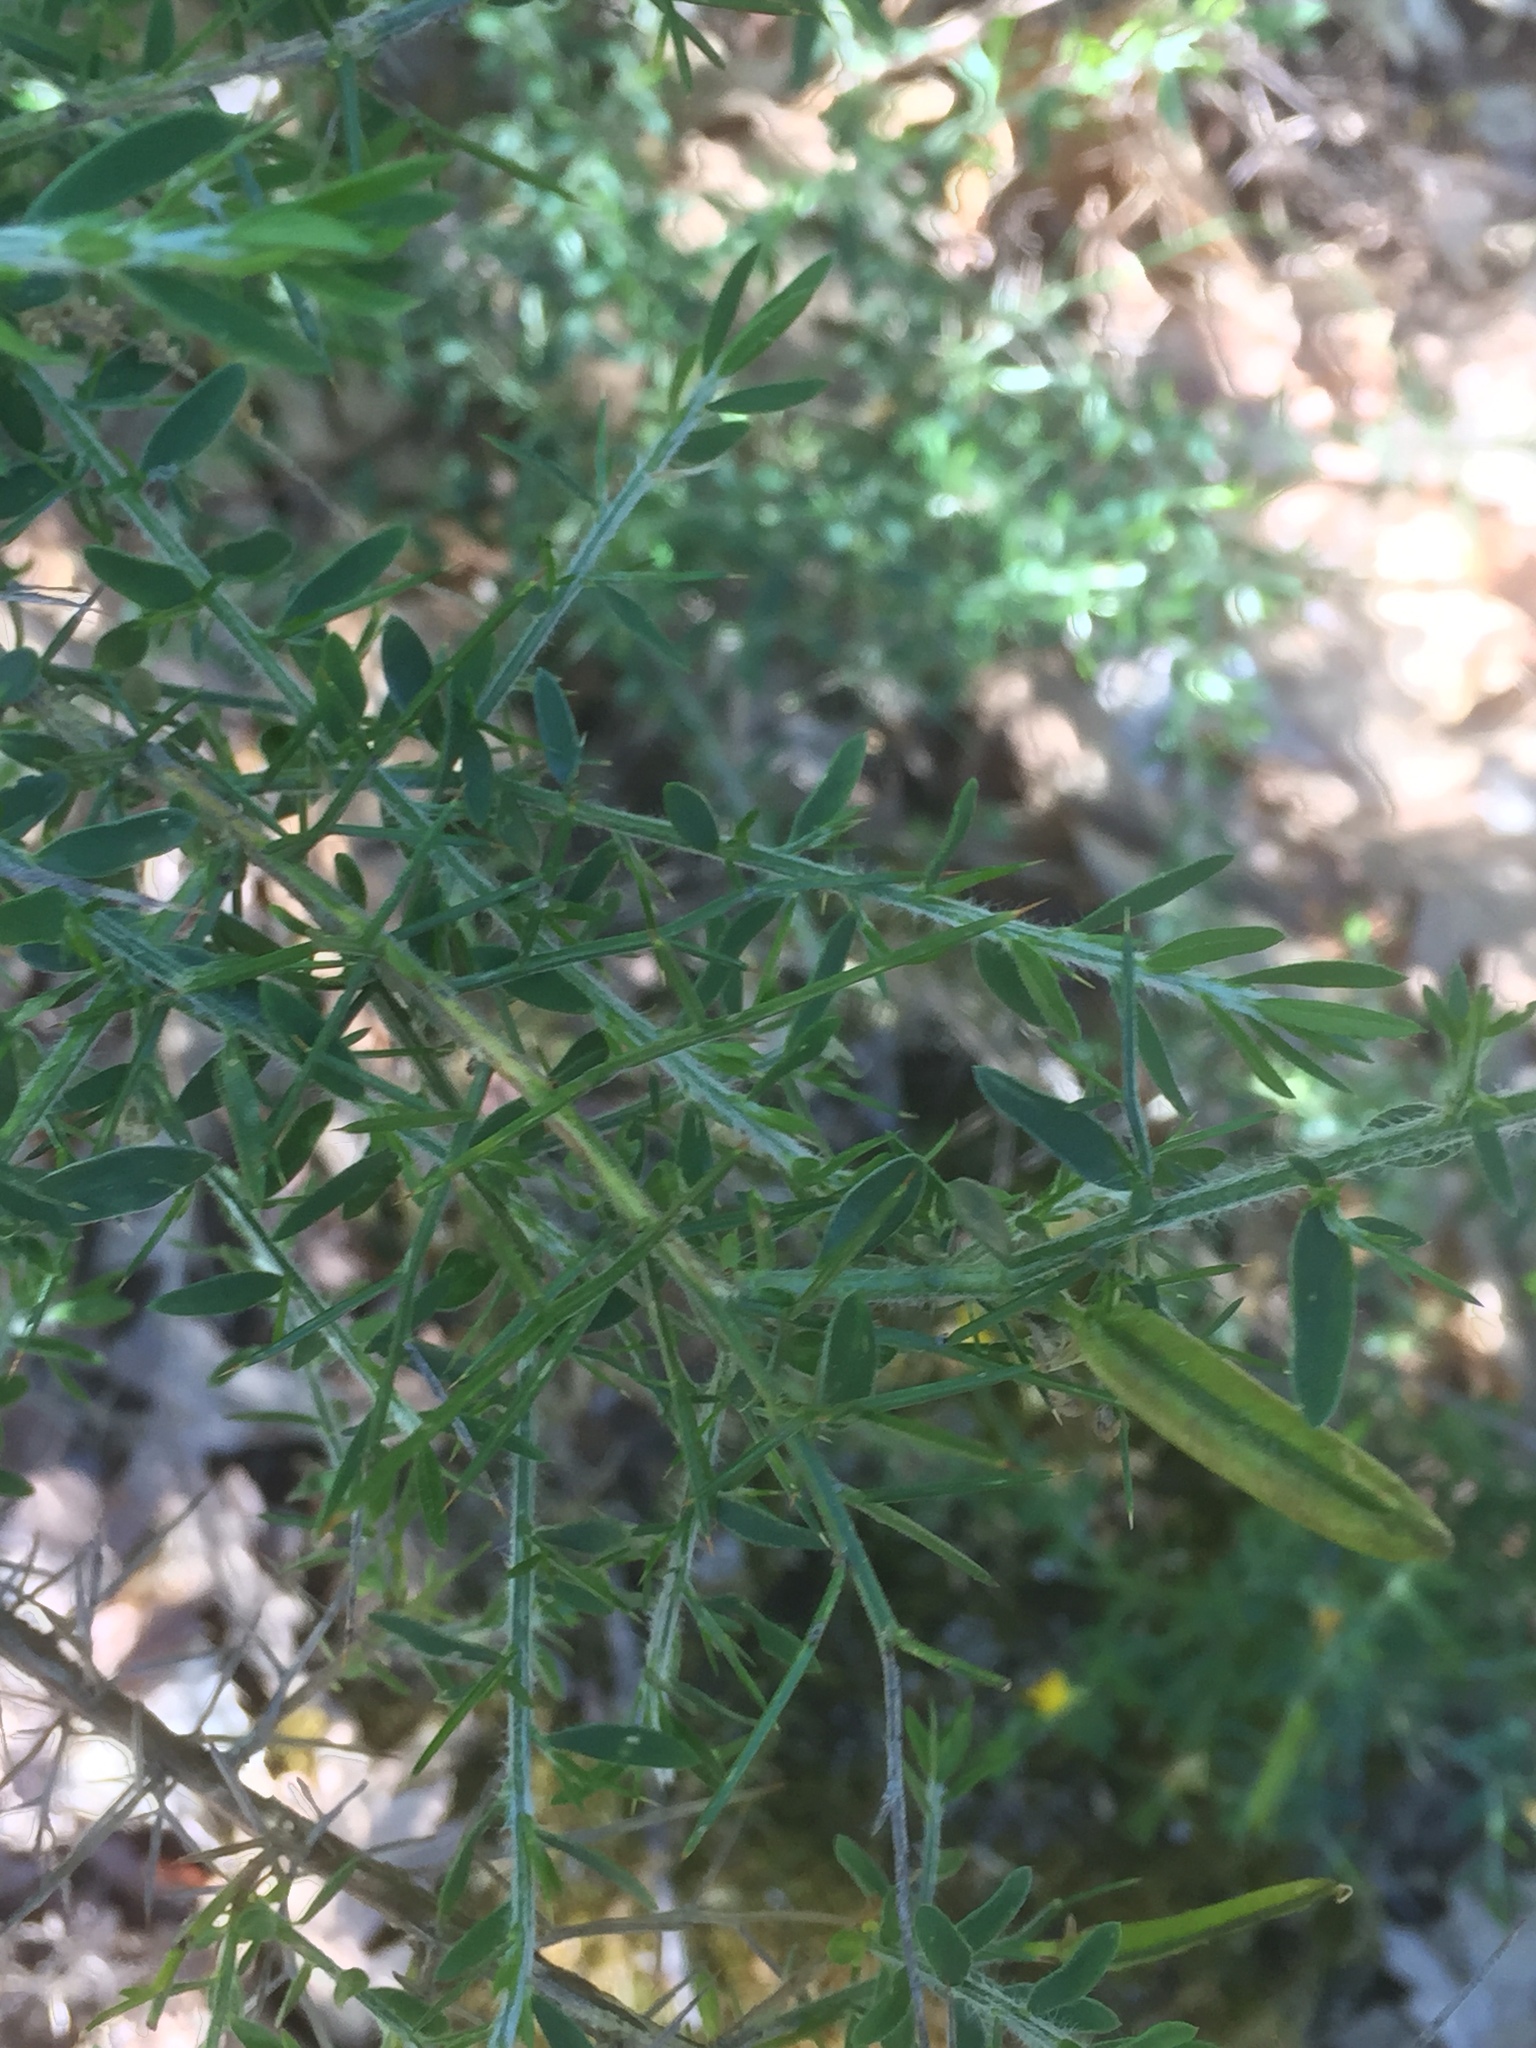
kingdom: Plantae
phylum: Tracheophyta
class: Magnoliopsida
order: Fabales
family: Fabaceae
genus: Genista
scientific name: Genista falcata
